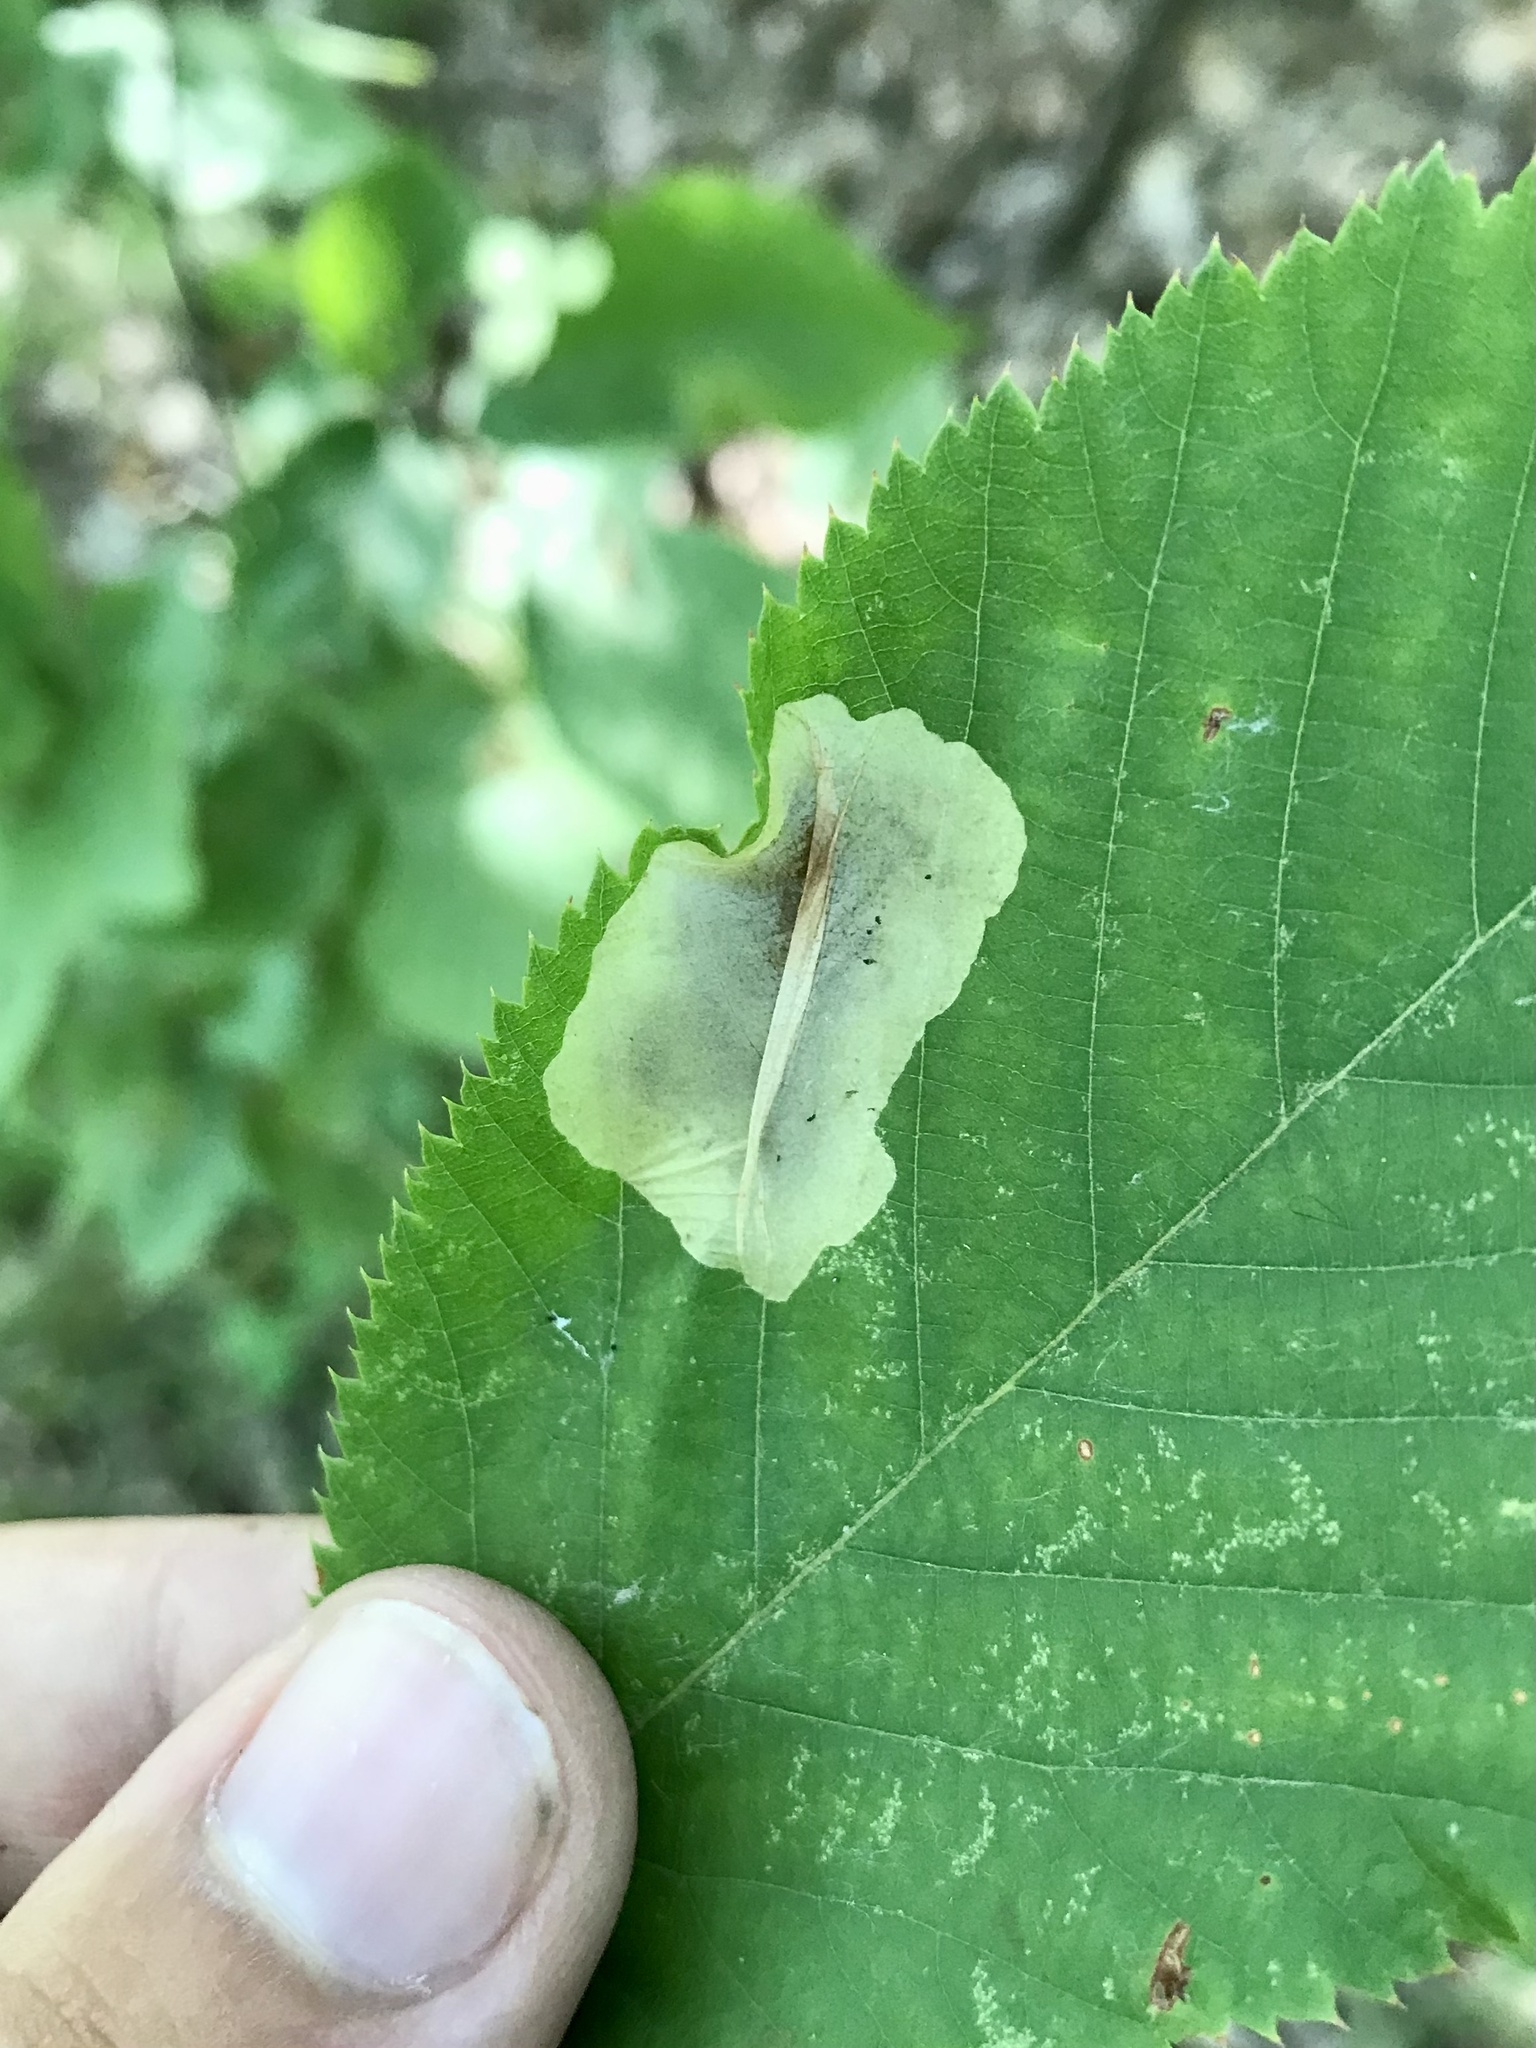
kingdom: Animalia
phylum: Arthropoda
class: Insecta
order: Lepidoptera
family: Gracillariidae
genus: Cameraria
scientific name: Cameraria lentella
